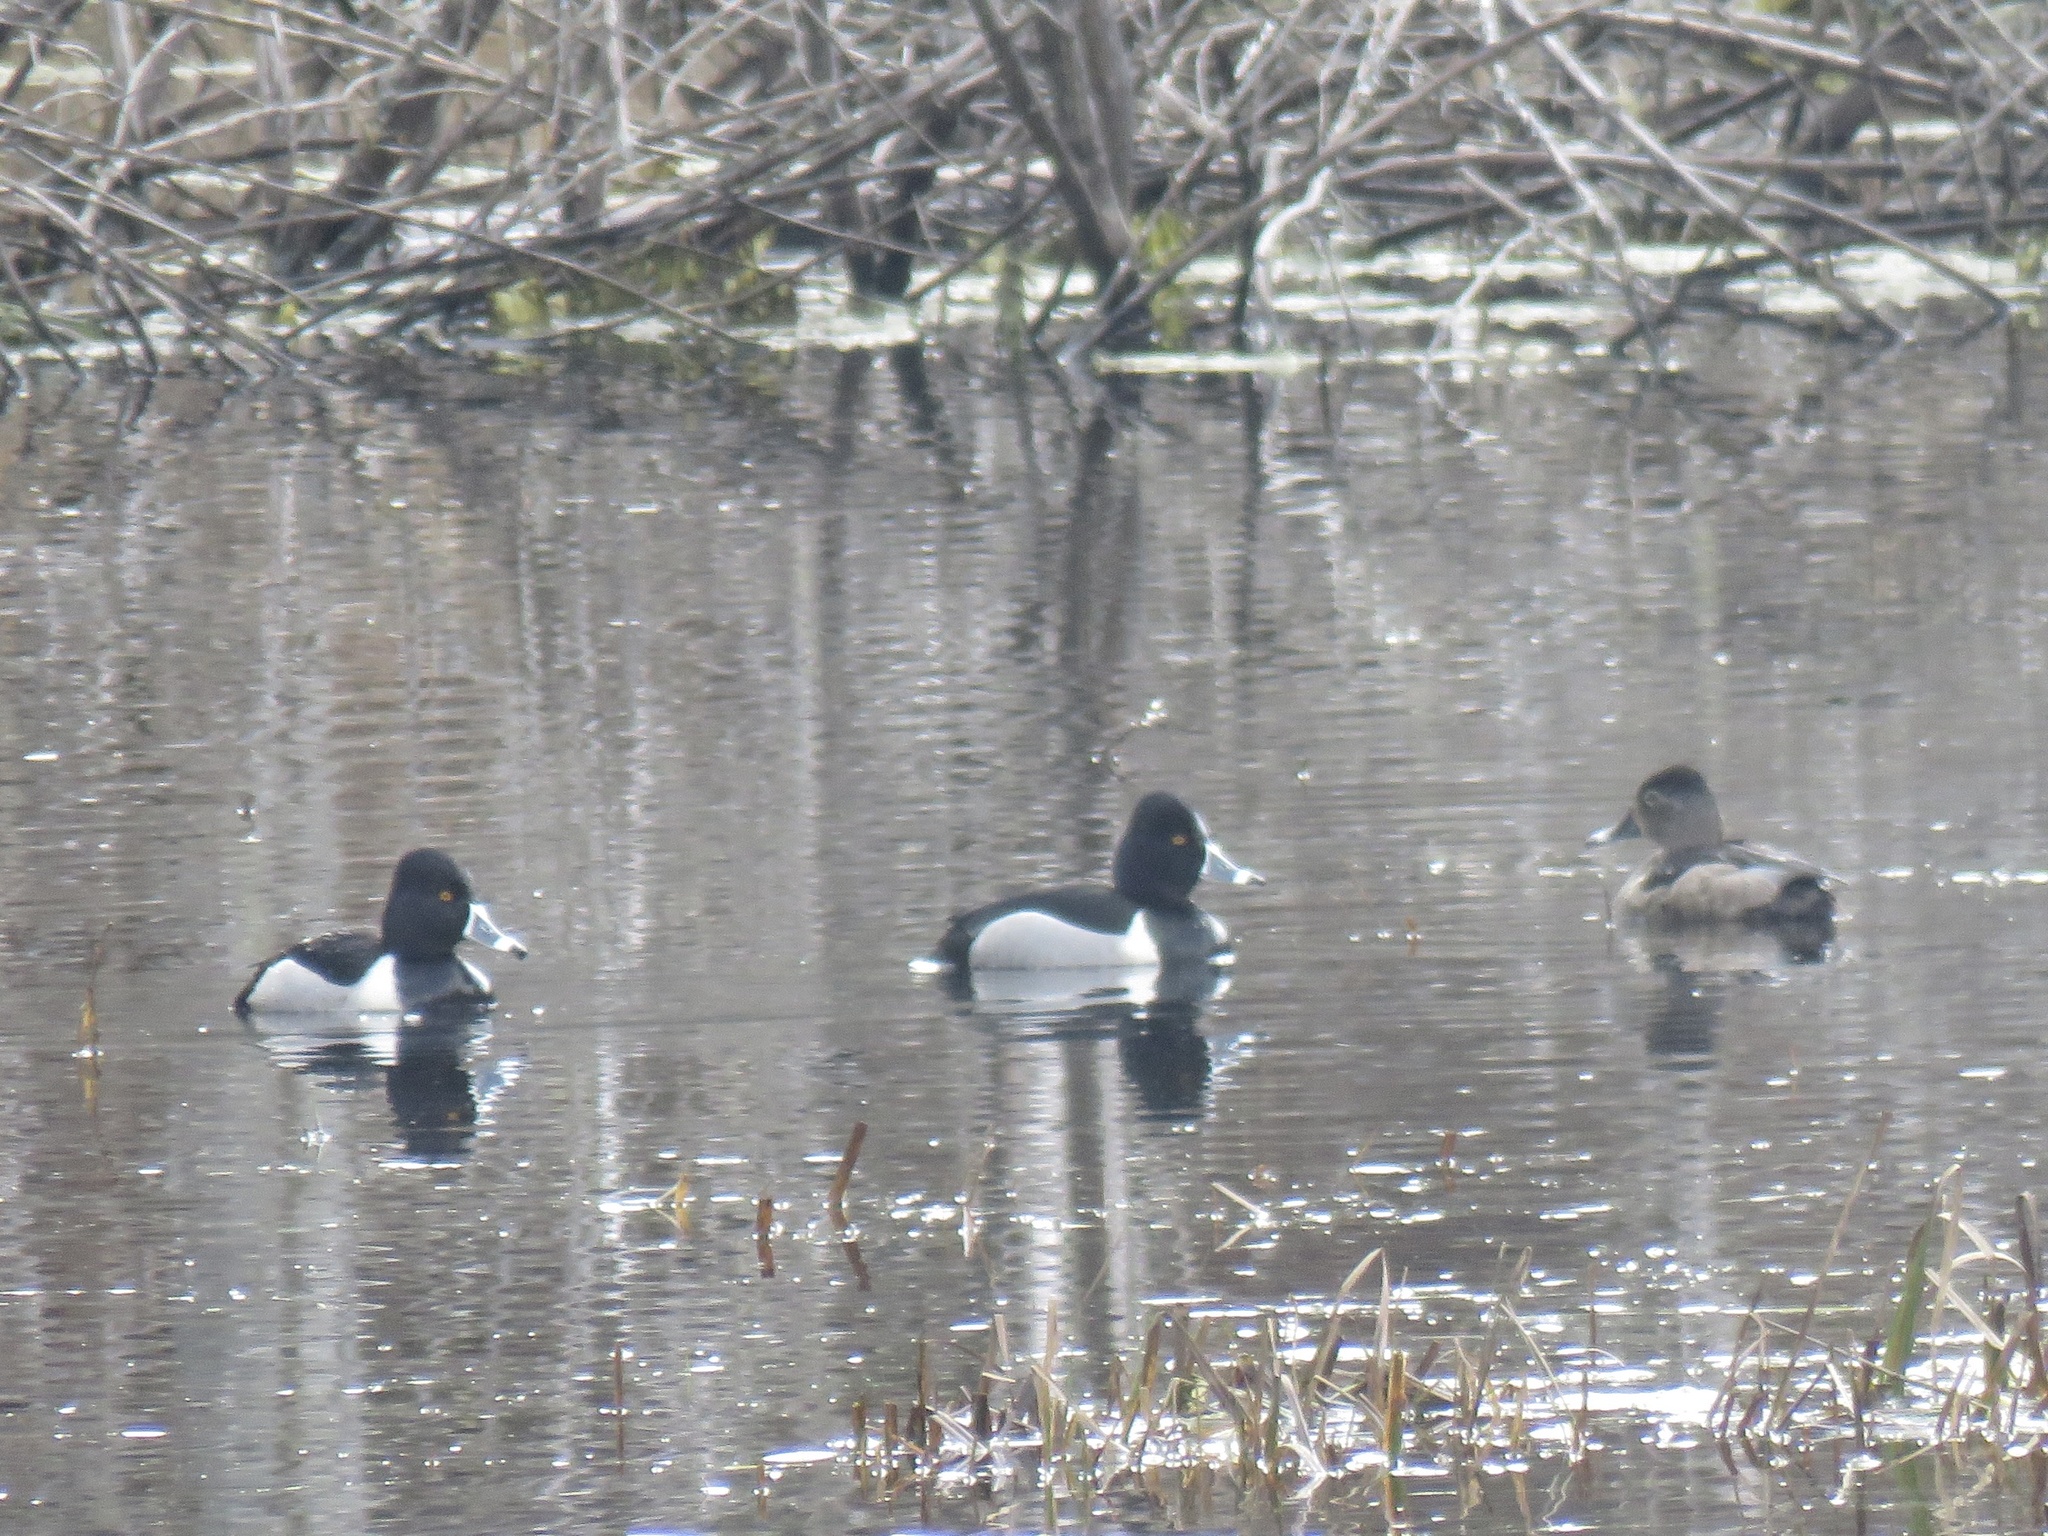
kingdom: Animalia
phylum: Chordata
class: Aves
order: Anseriformes
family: Anatidae
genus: Aythya
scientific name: Aythya collaris
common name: Ring-necked duck
